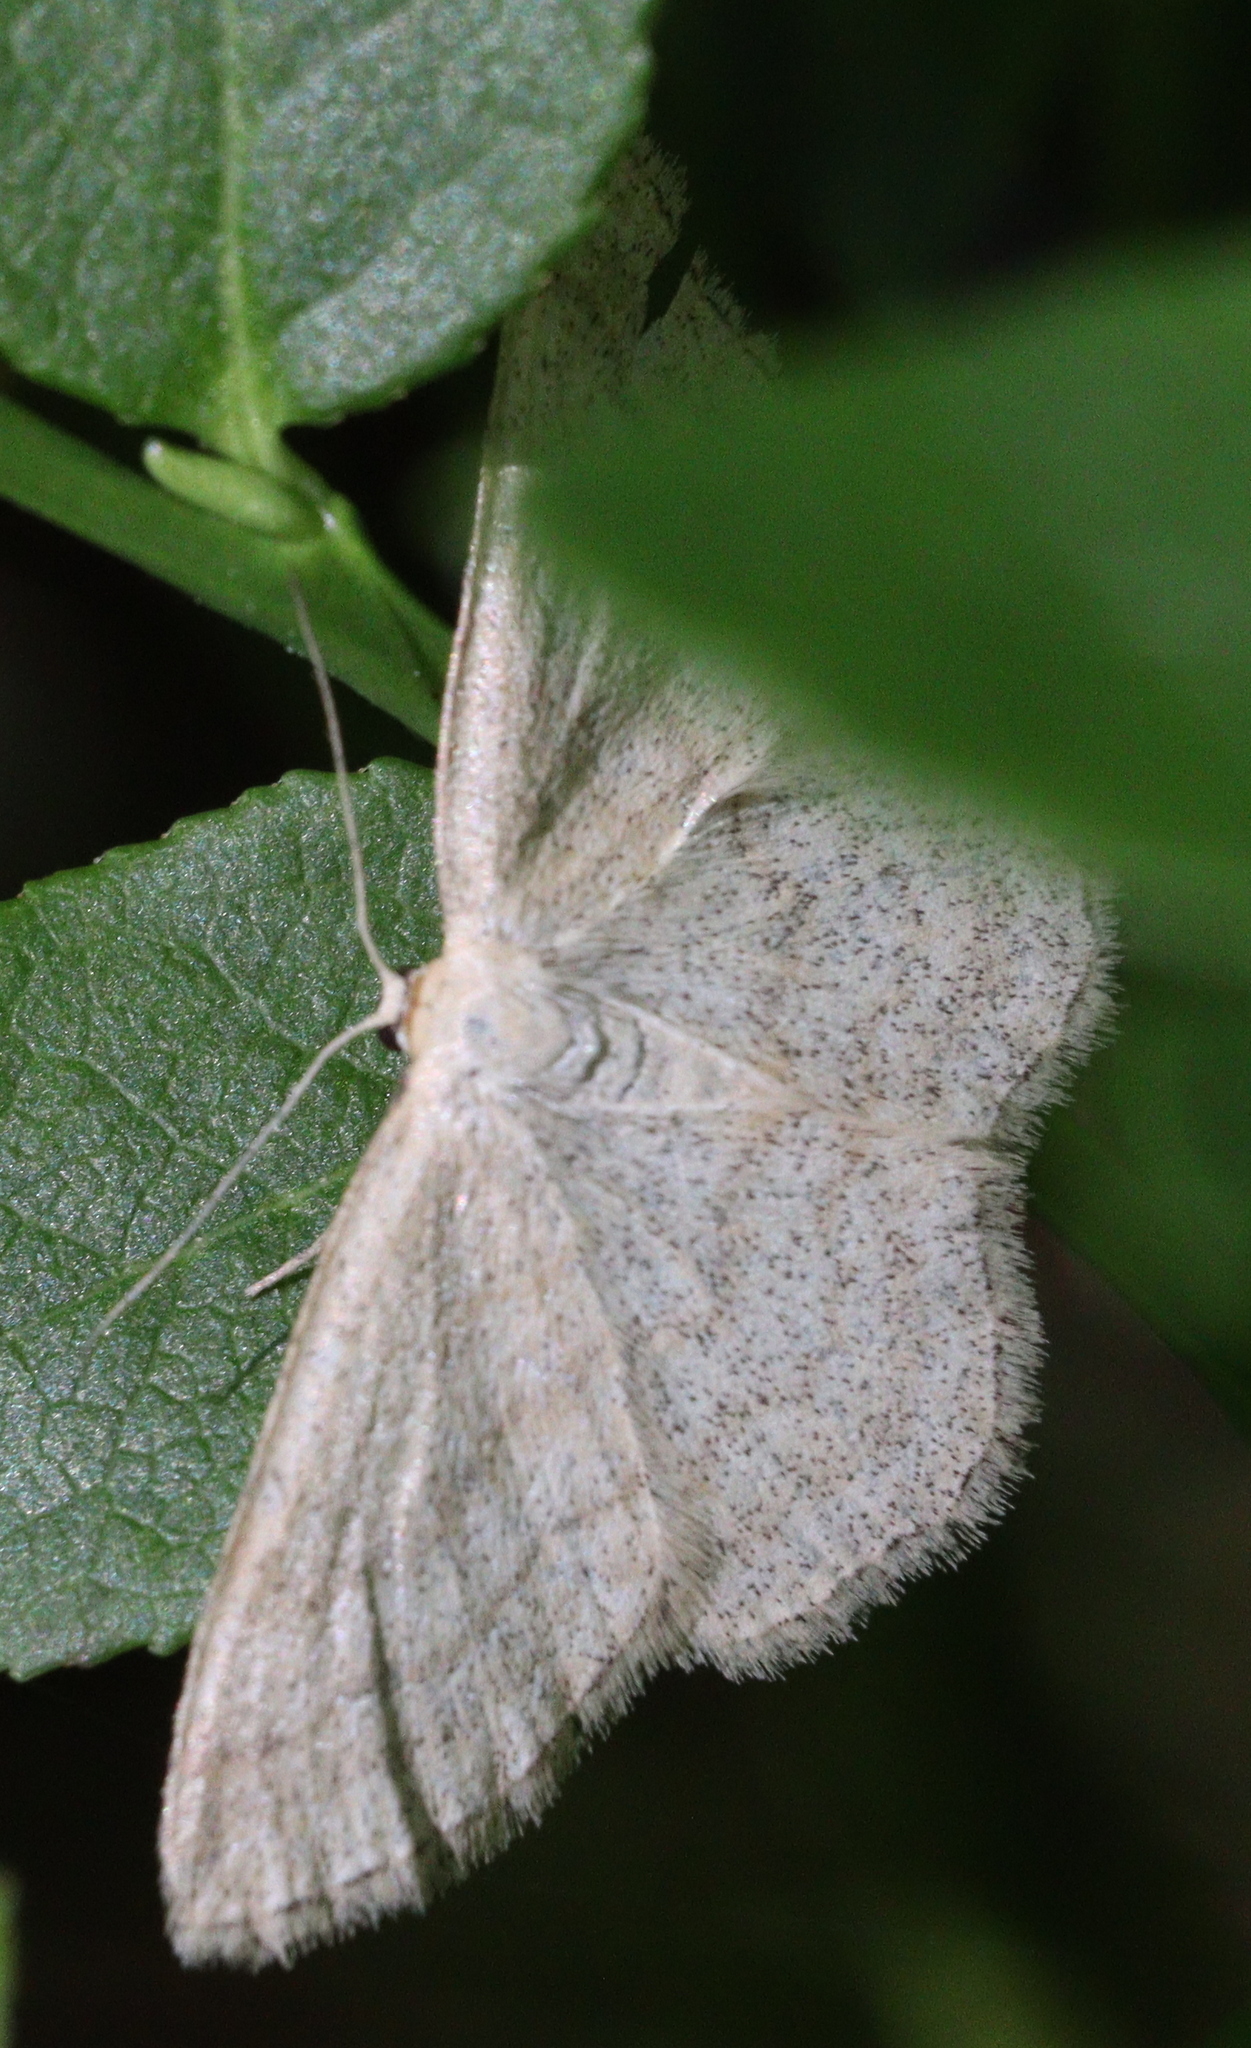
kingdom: Animalia
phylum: Arthropoda
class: Insecta
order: Lepidoptera
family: Geometridae
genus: Scopula
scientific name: Scopula ternata
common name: Smoky wave
